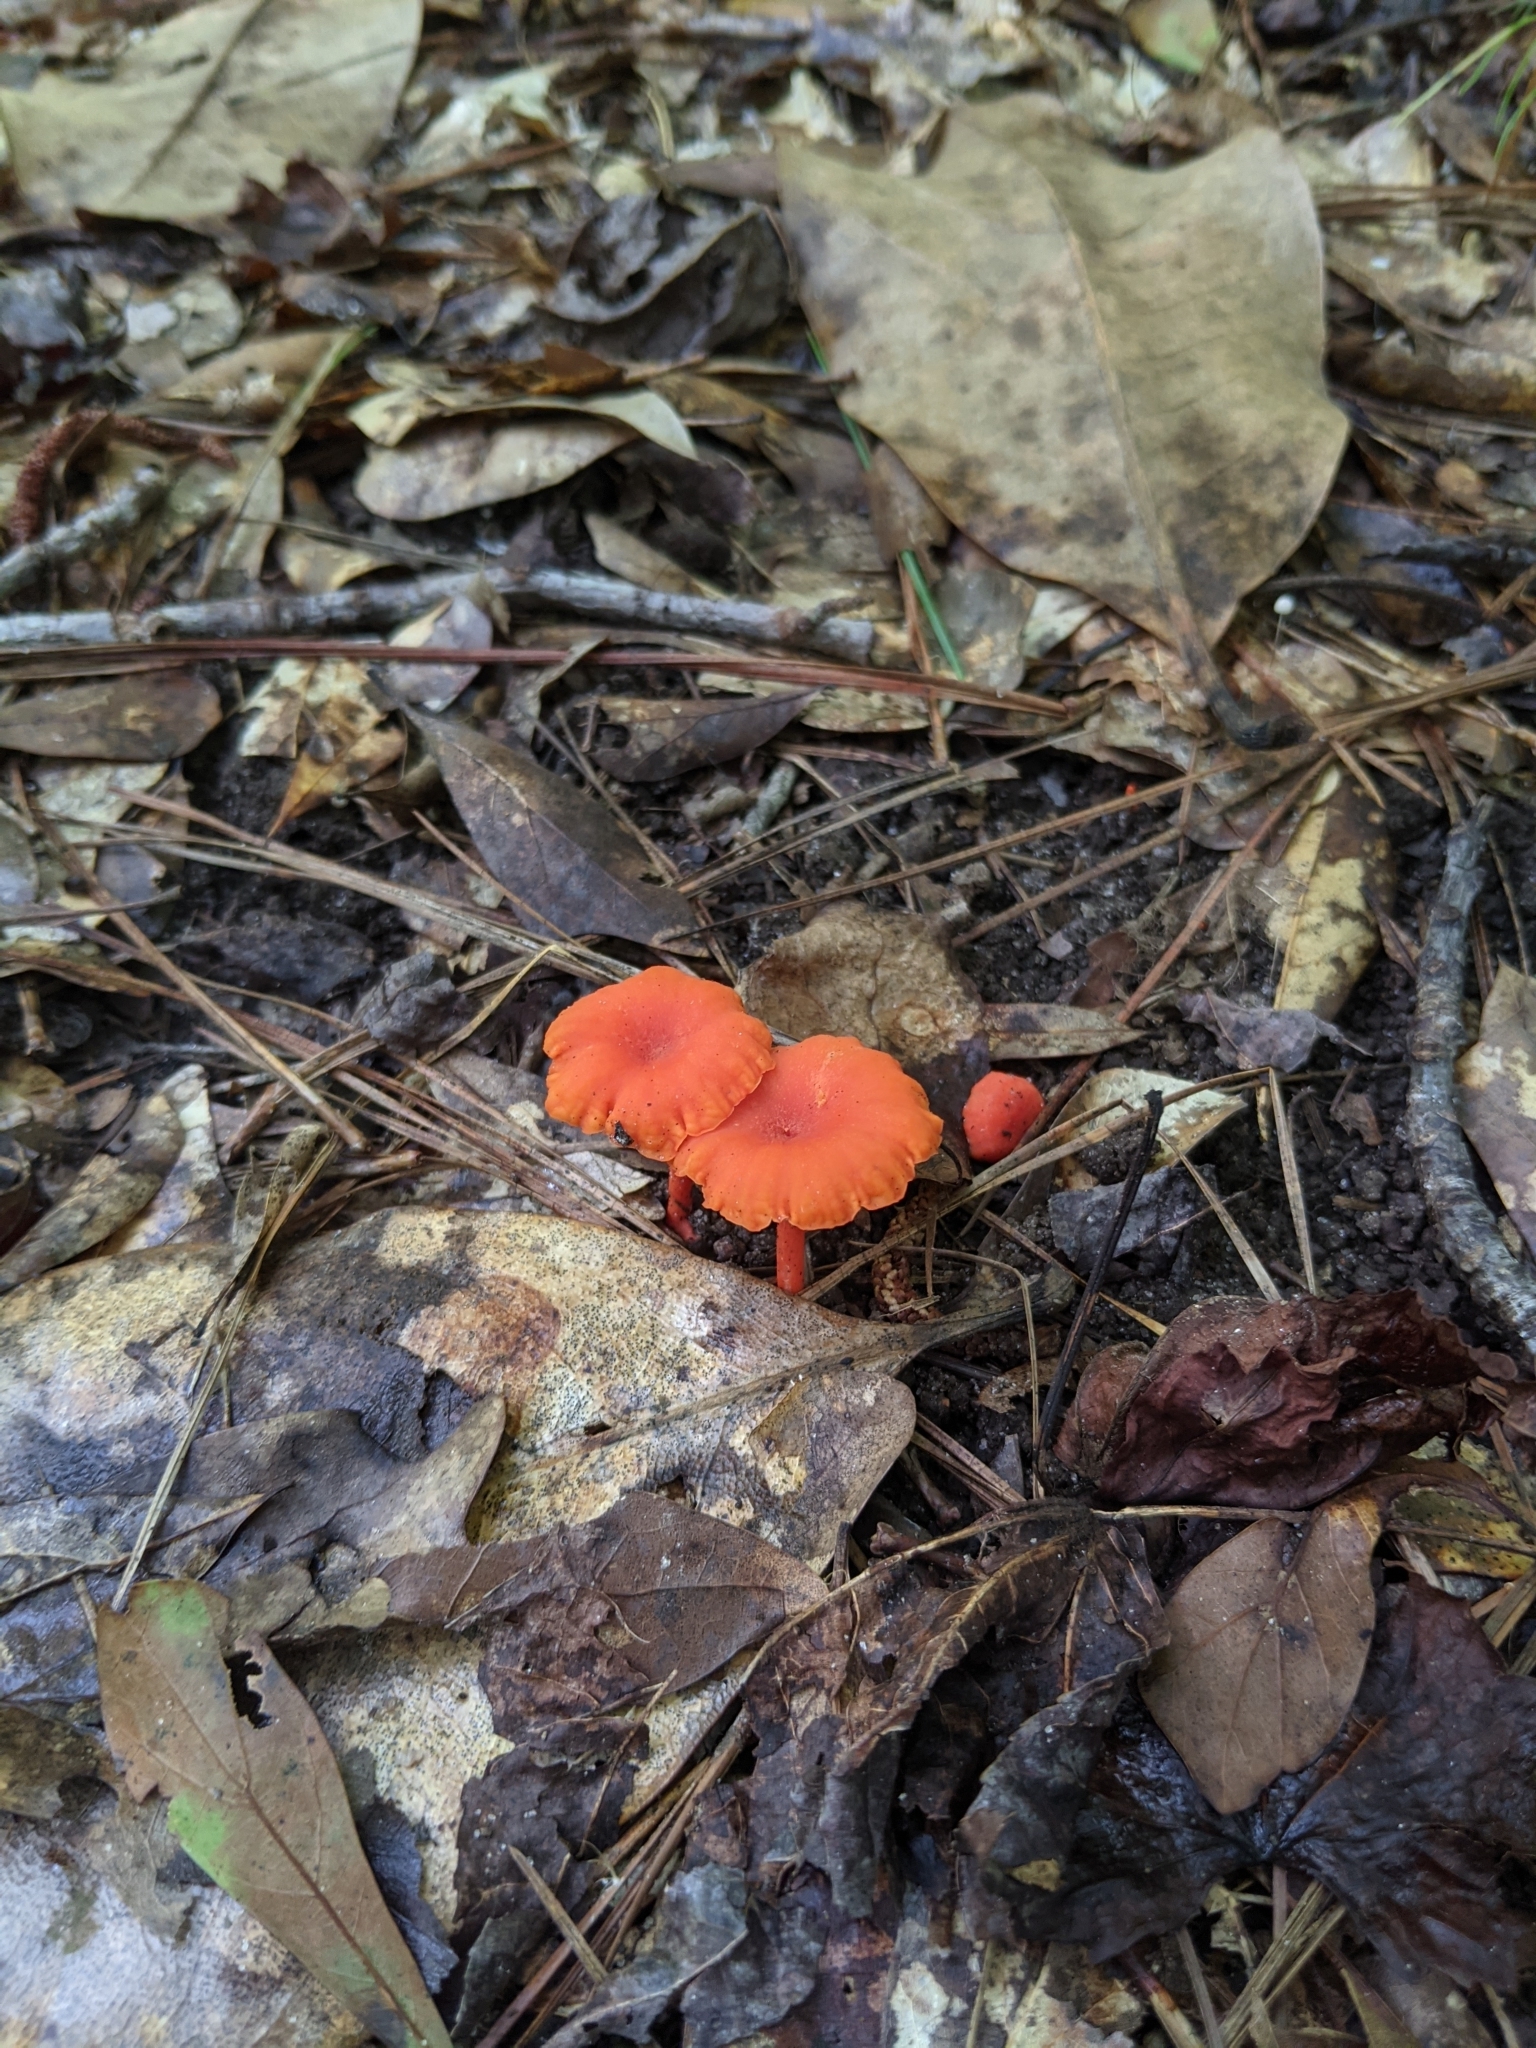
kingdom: Fungi
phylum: Basidiomycota
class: Agaricomycetes
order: Cantharellales
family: Hydnaceae
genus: Cantharellus
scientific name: Cantharellus cinnabarinus
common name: Cinnabar chanterelle
